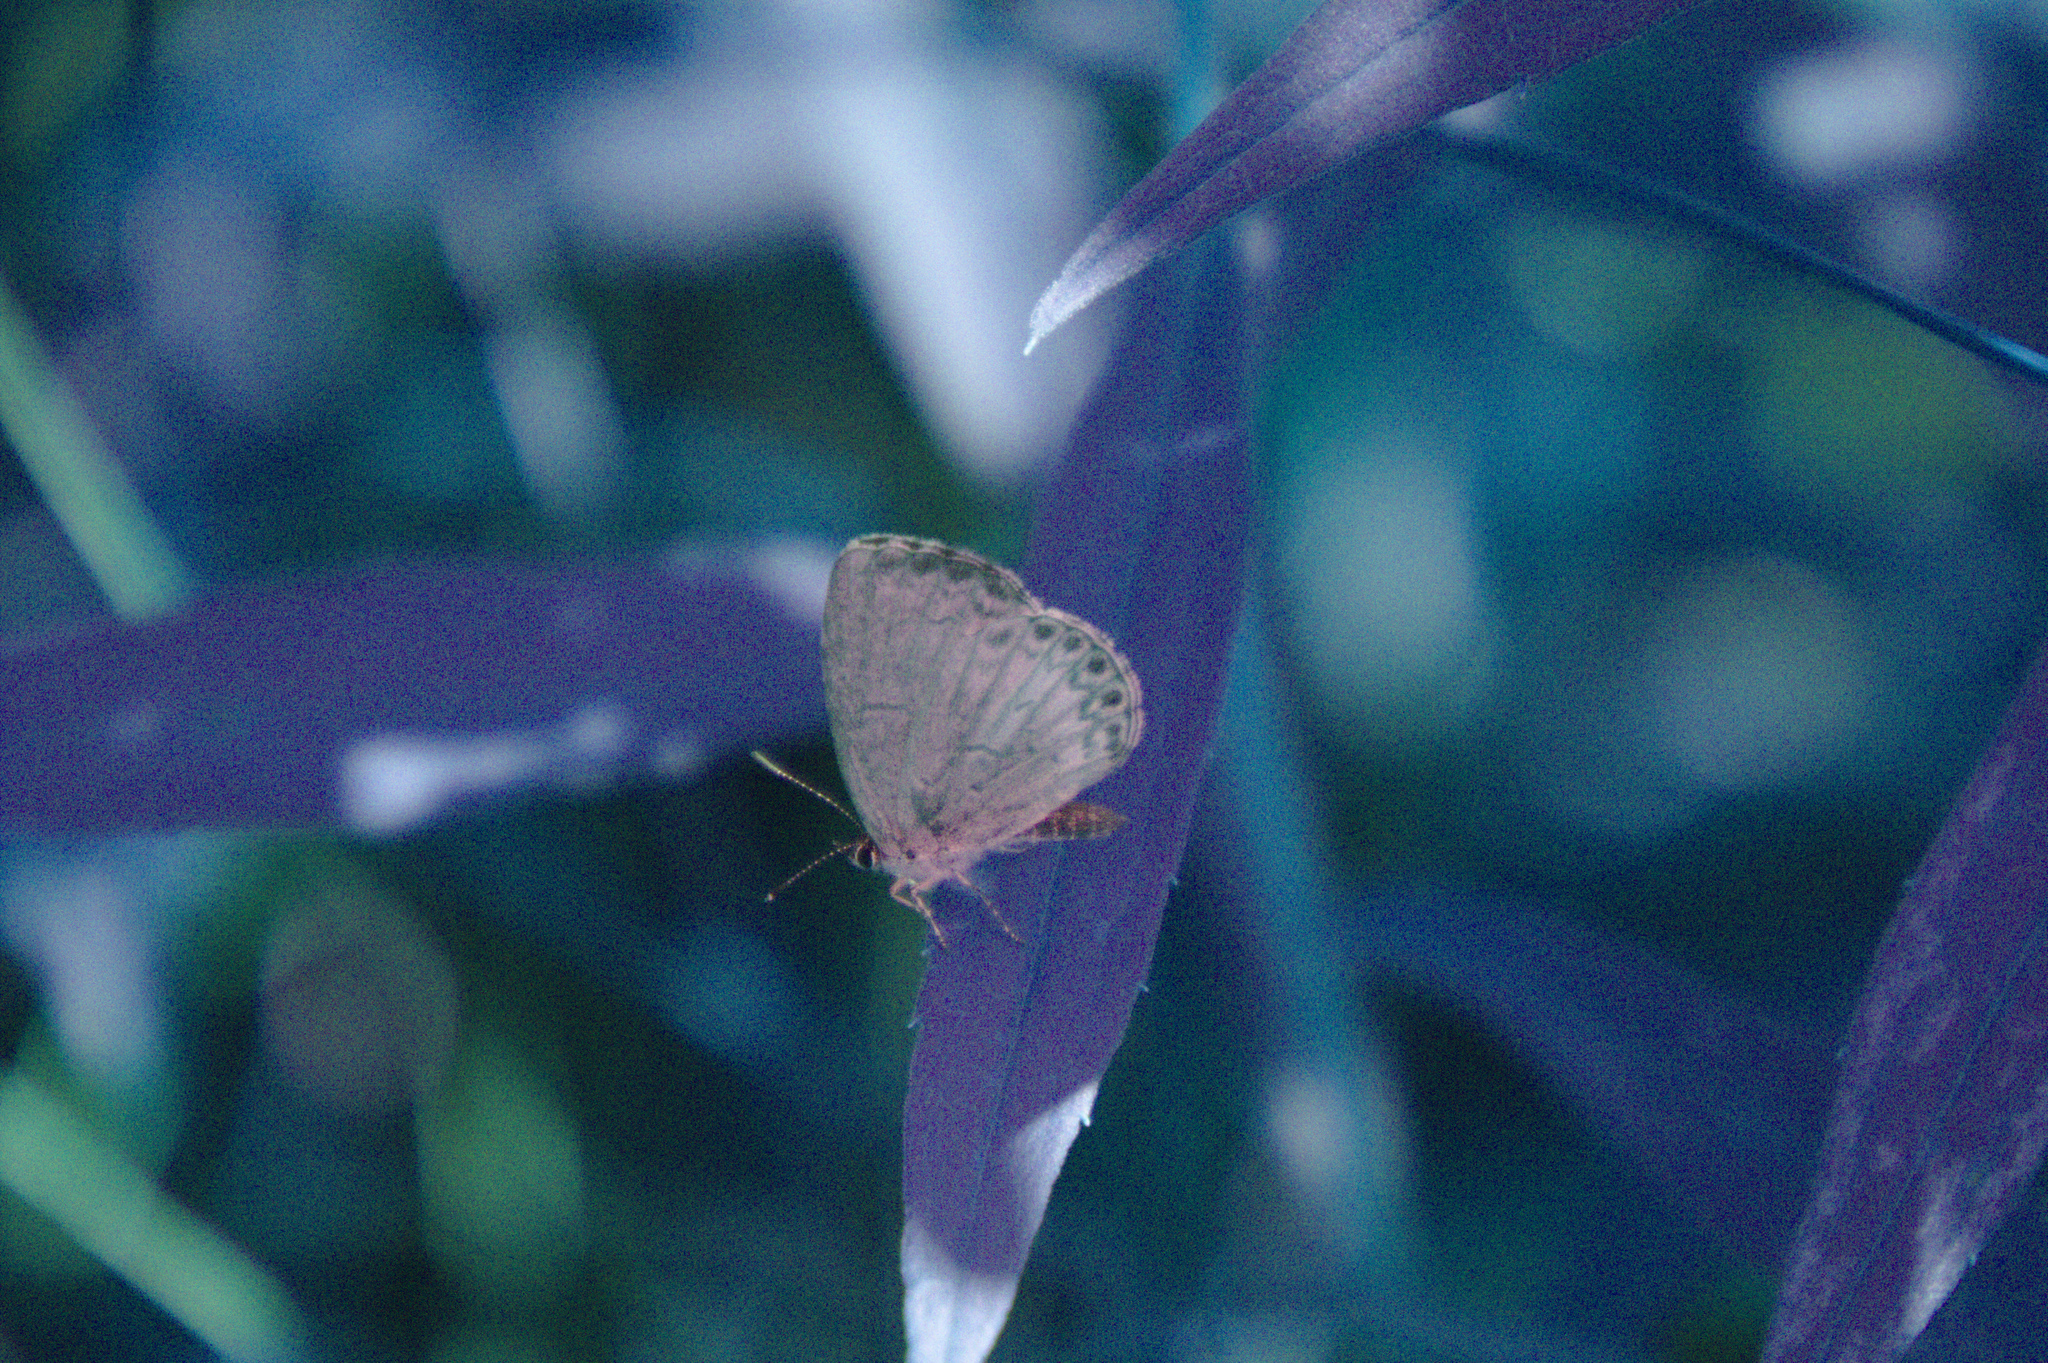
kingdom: Animalia
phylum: Arthropoda
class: Insecta
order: Lepidoptera
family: Lycaenidae
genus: Celastrina
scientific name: Celastrina lucia
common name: Lucia azure
